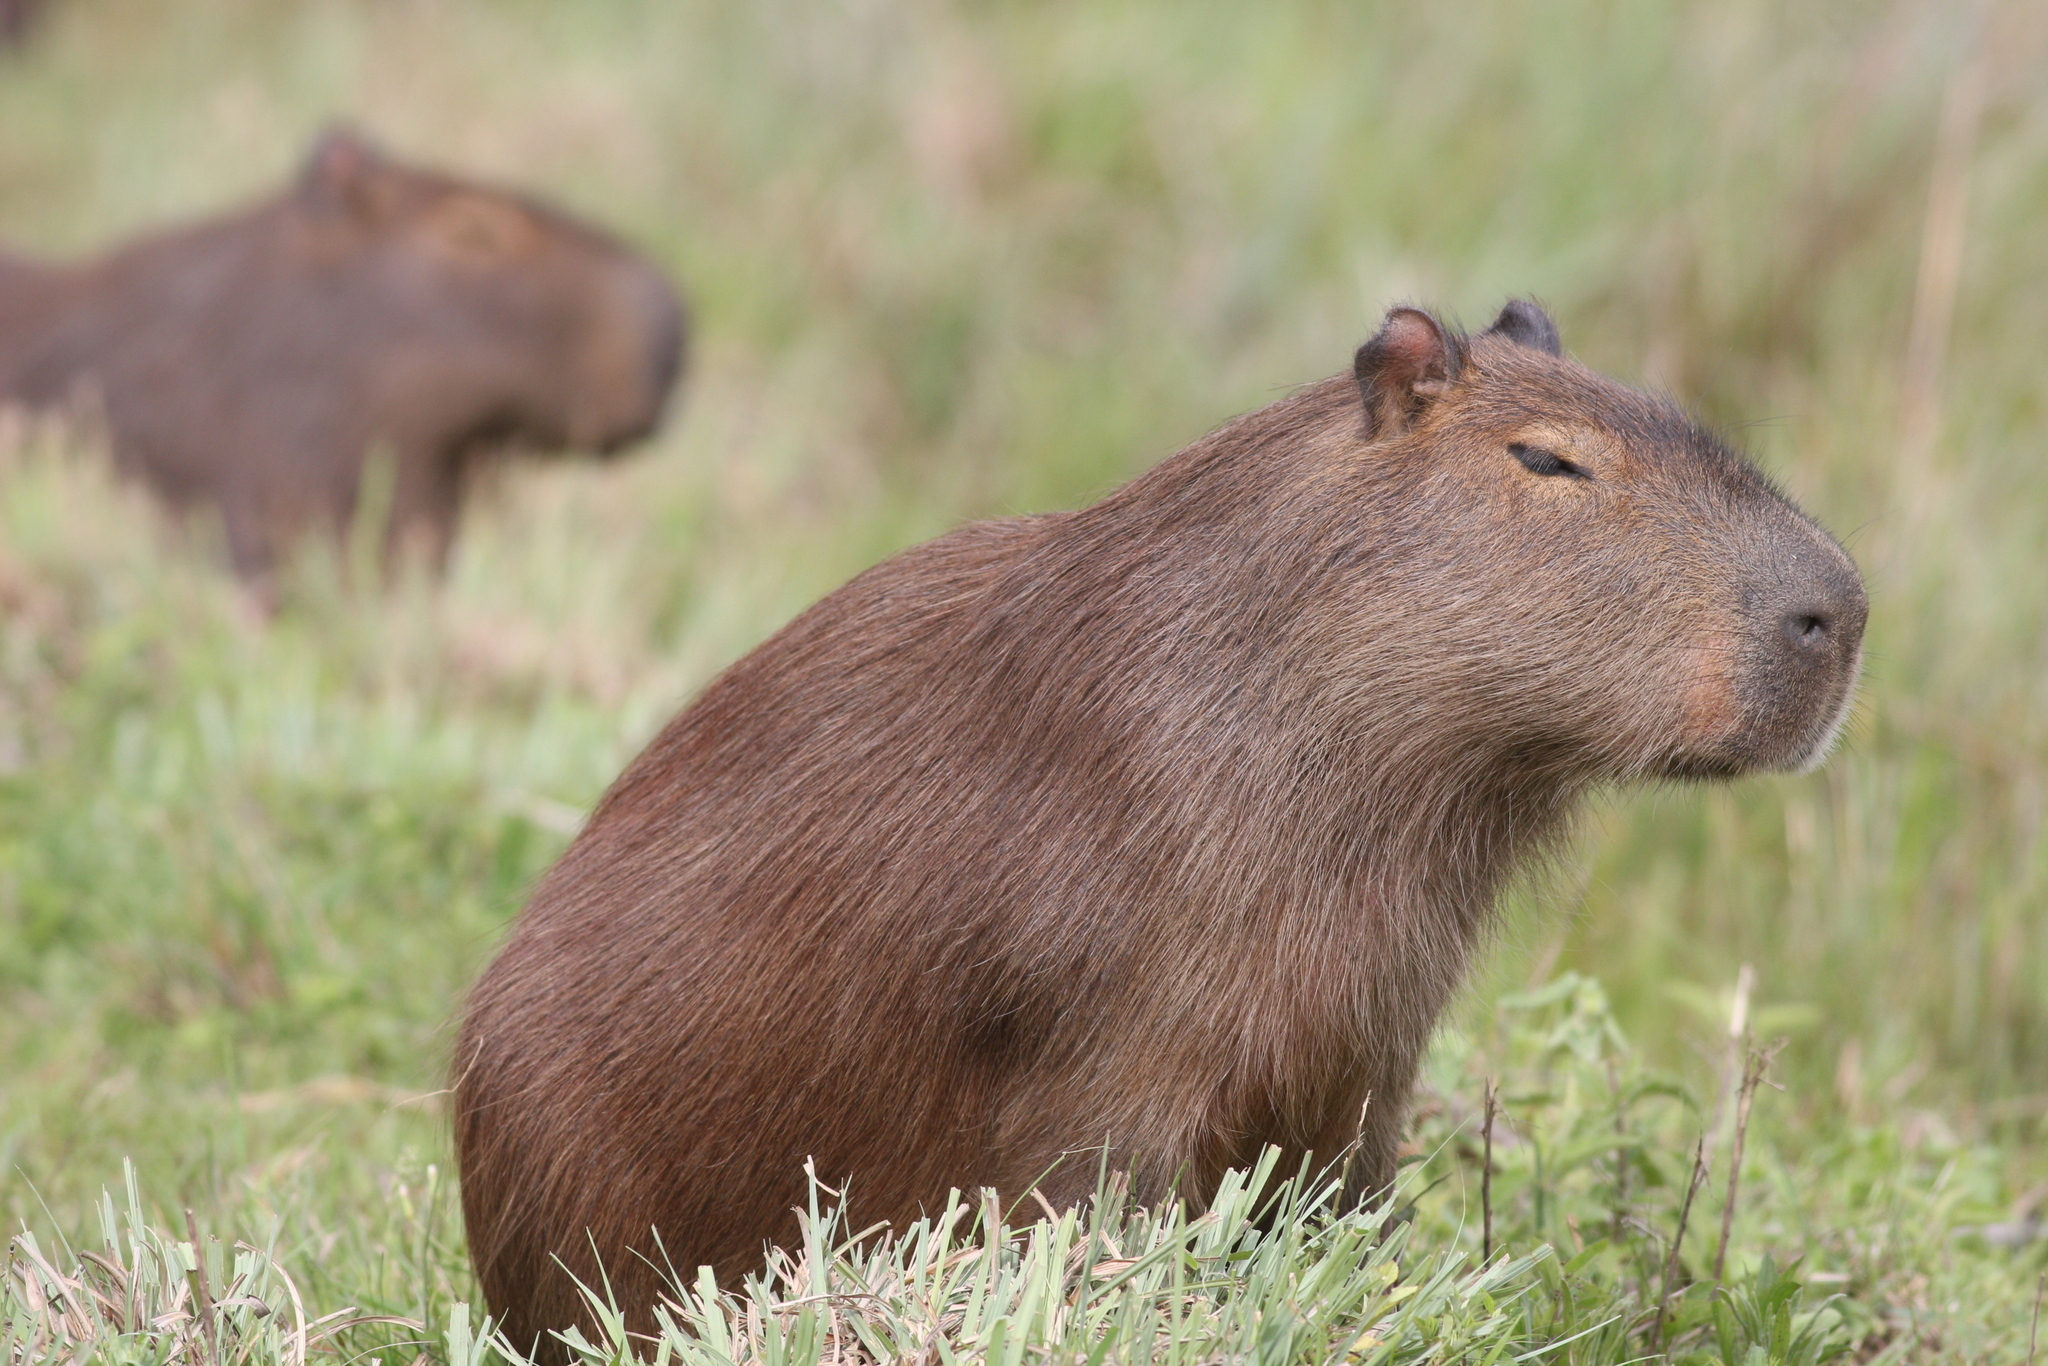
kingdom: Animalia
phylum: Chordata
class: Mammalia
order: Rodentia
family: Caviidae
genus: Hydrochoerus
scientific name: Hydrochoerus hydrochaeris
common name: Capybara
